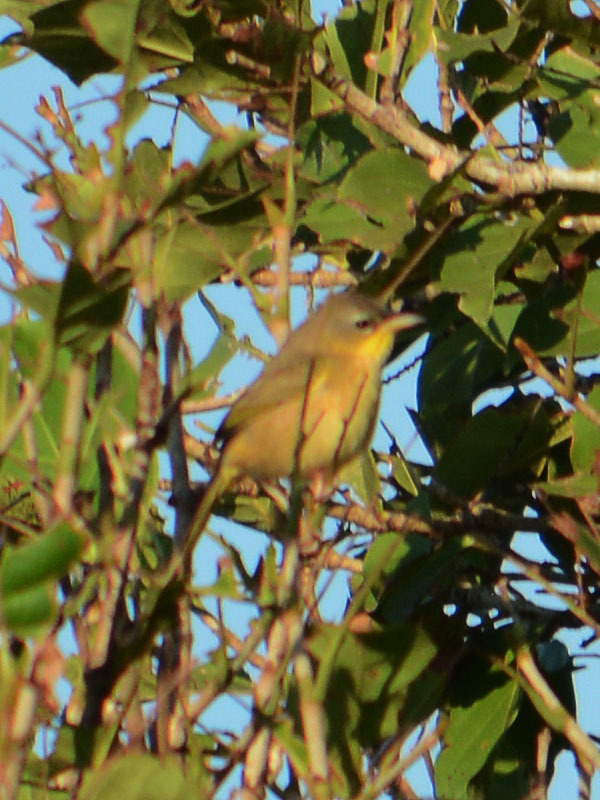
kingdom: Animalia
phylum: Chordata
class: Aves
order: Passeriformes
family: Parulidae
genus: Geothlypis
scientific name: Geothlypis poliocephala
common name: Gray-crowned yellowthroat
